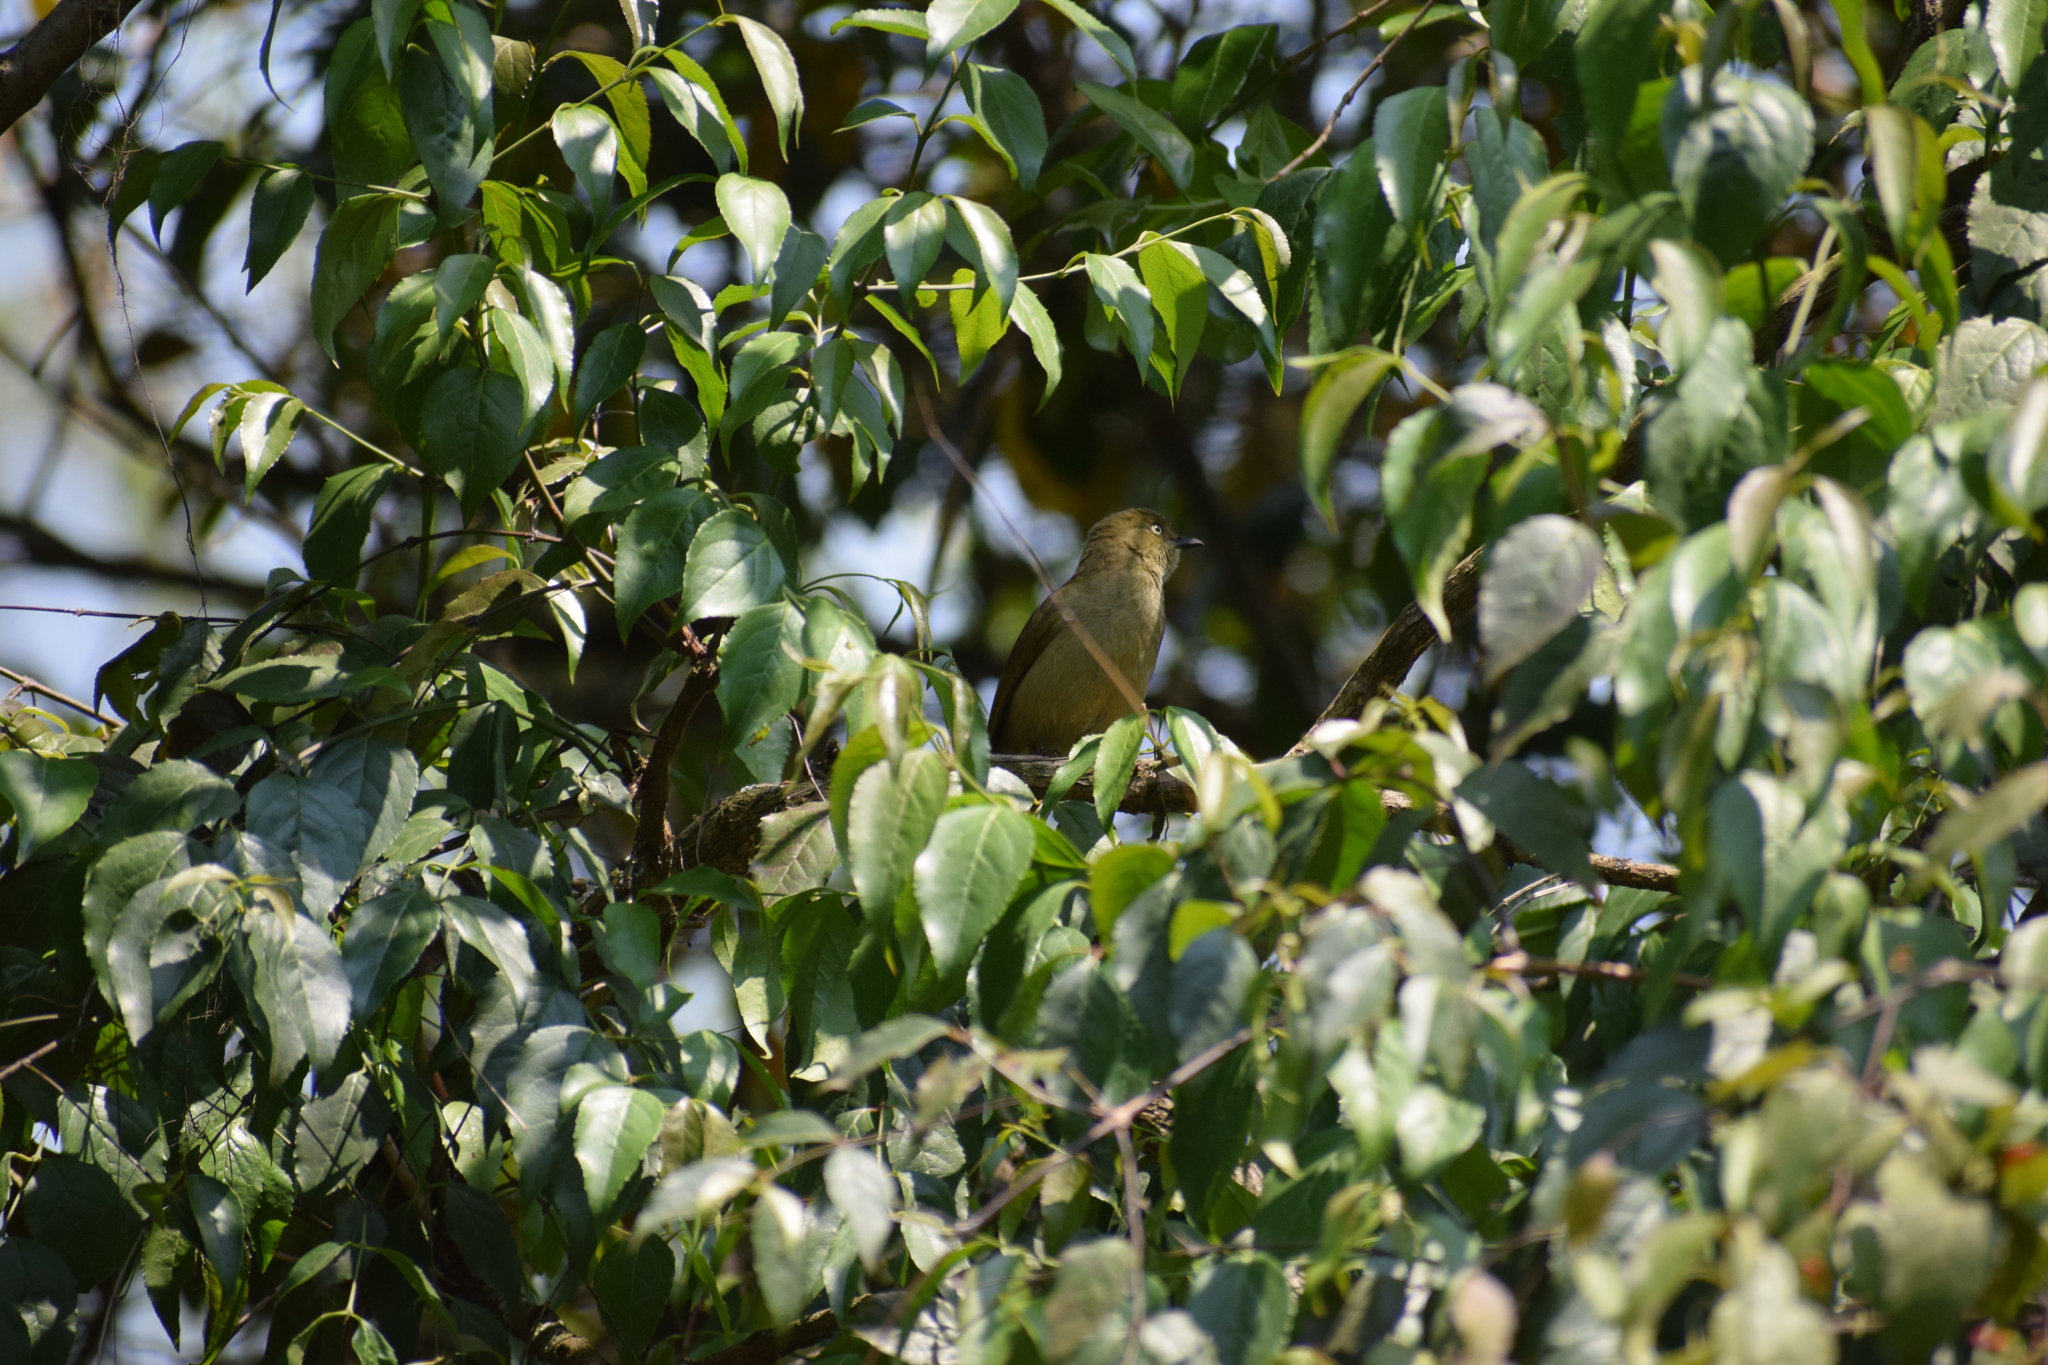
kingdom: Animalia
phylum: Chordata
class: Aves
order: Passeriformes
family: Pycnonotidae
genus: Andropadus
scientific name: Andropadus importunus
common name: Sombre greenbul
